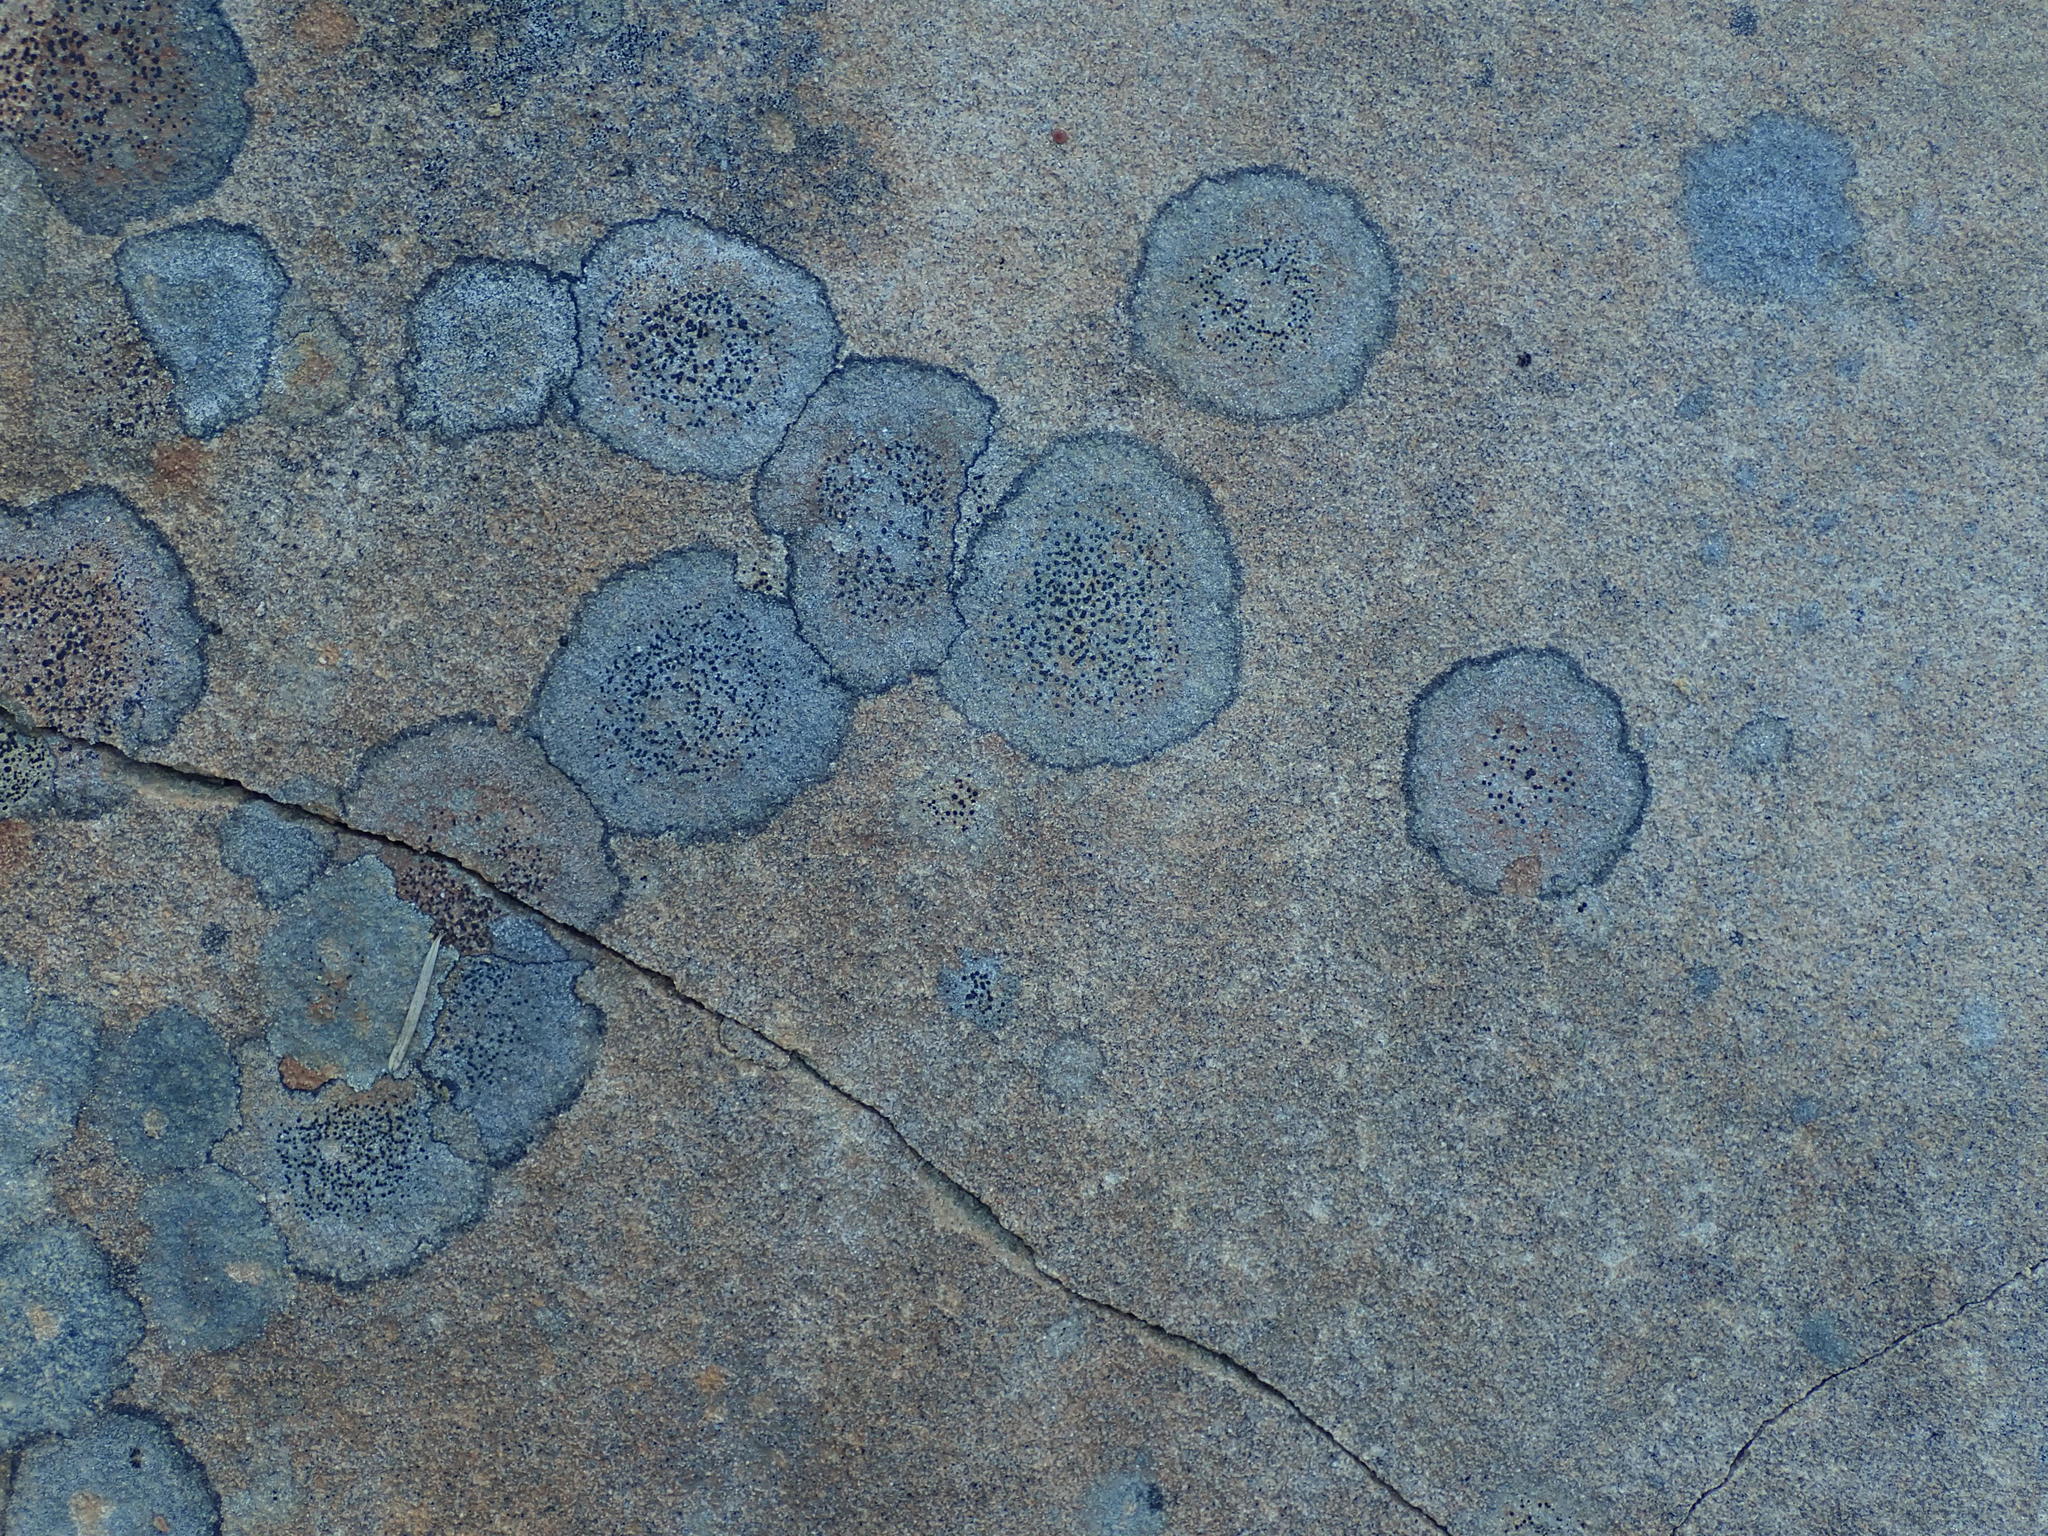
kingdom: Fungi
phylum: Ascomycota
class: Lecanoromycetes
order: Lecideales
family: Lecideaceae
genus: Porpidia
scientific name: Porpidia crustulata
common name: Concentric boulder lichen
